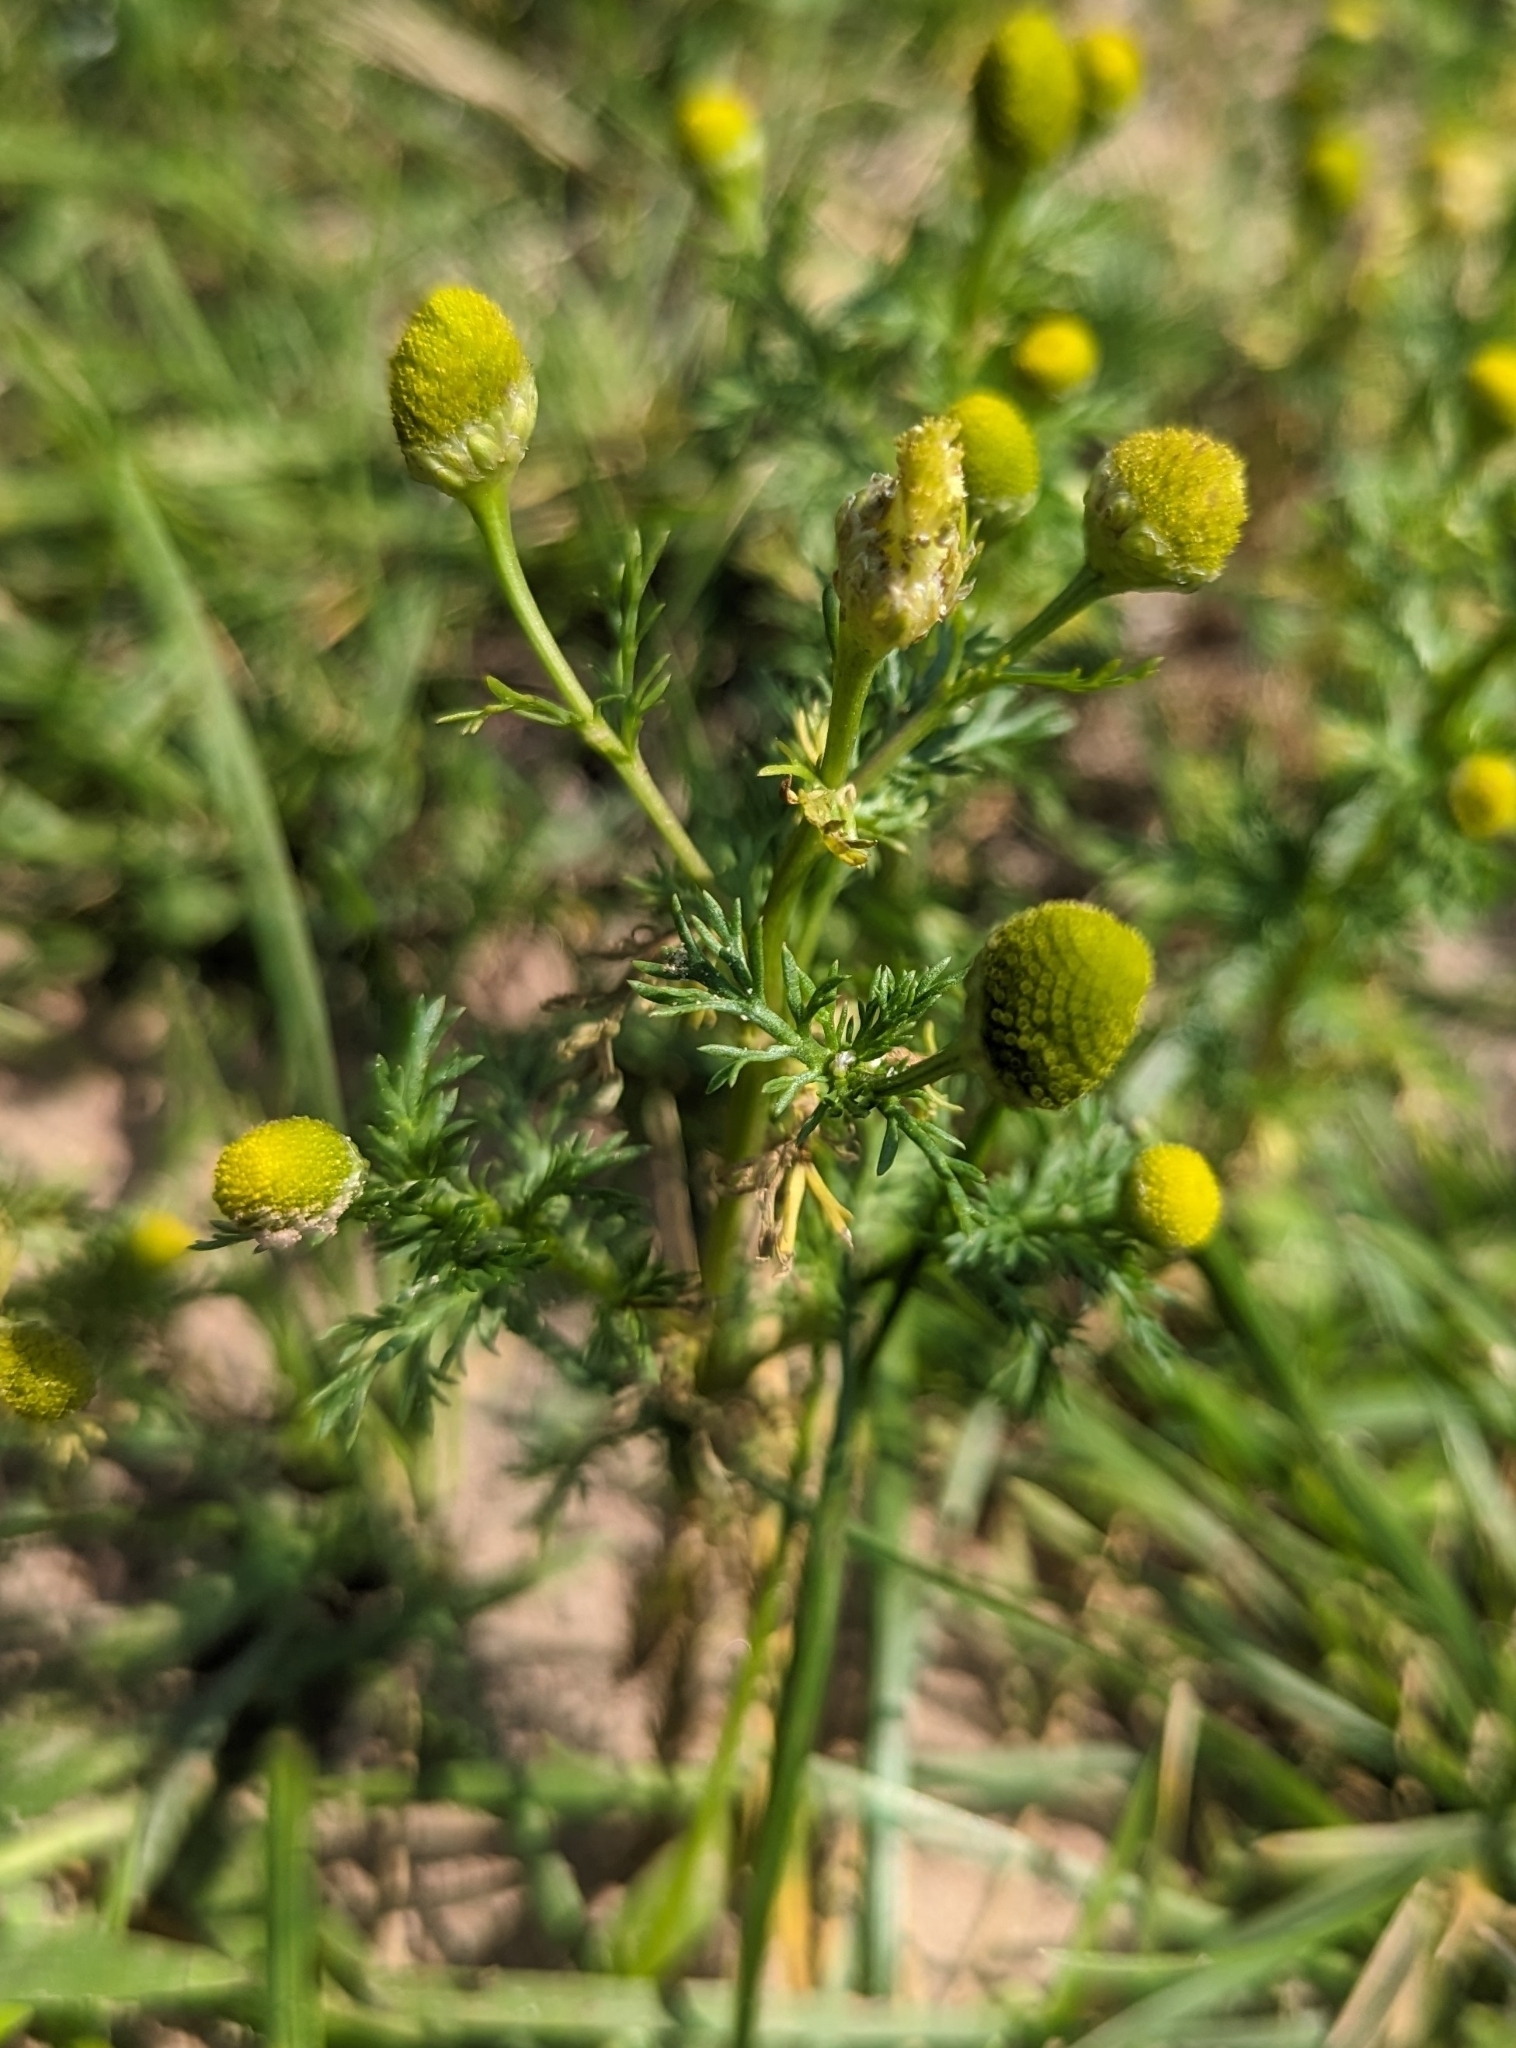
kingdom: Plantae
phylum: Tracheophyta
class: Magnoliopsida
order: Asterales
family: Asteraceae
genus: Matricaria
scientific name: Matricaria discoidea
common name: Disc mayweed
